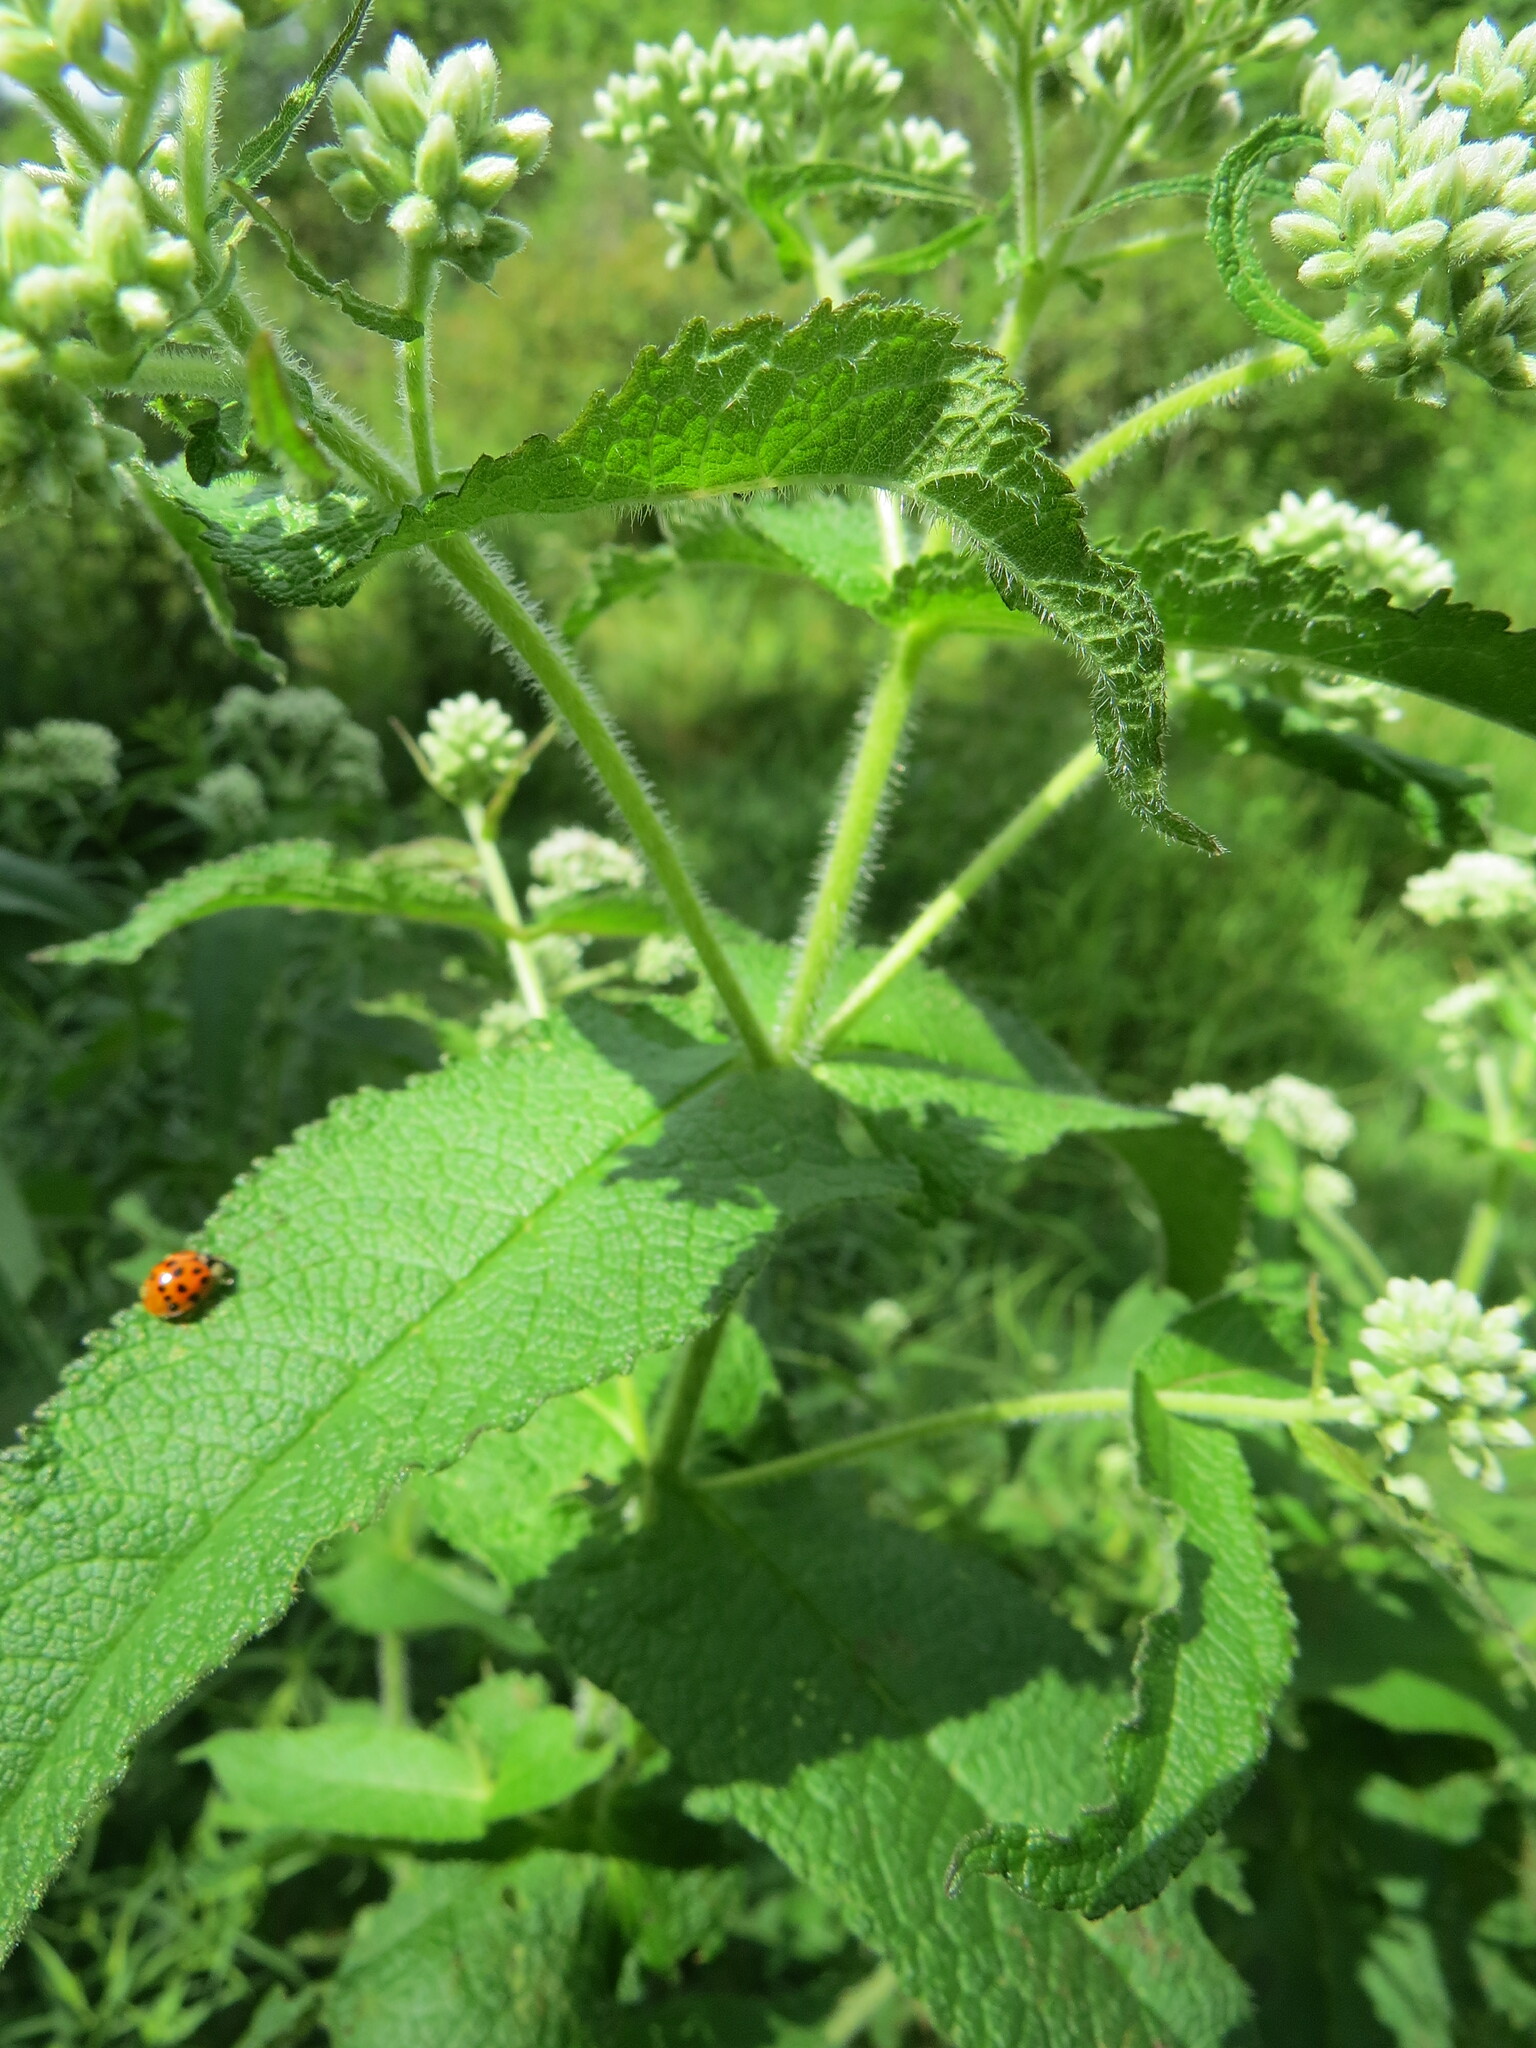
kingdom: Plantae
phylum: Tracheophyta
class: Magnoliopsida
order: Asterales
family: Asteraceae
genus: Eupatorium
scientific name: Eupatorium perfoliatum
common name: Boneset
